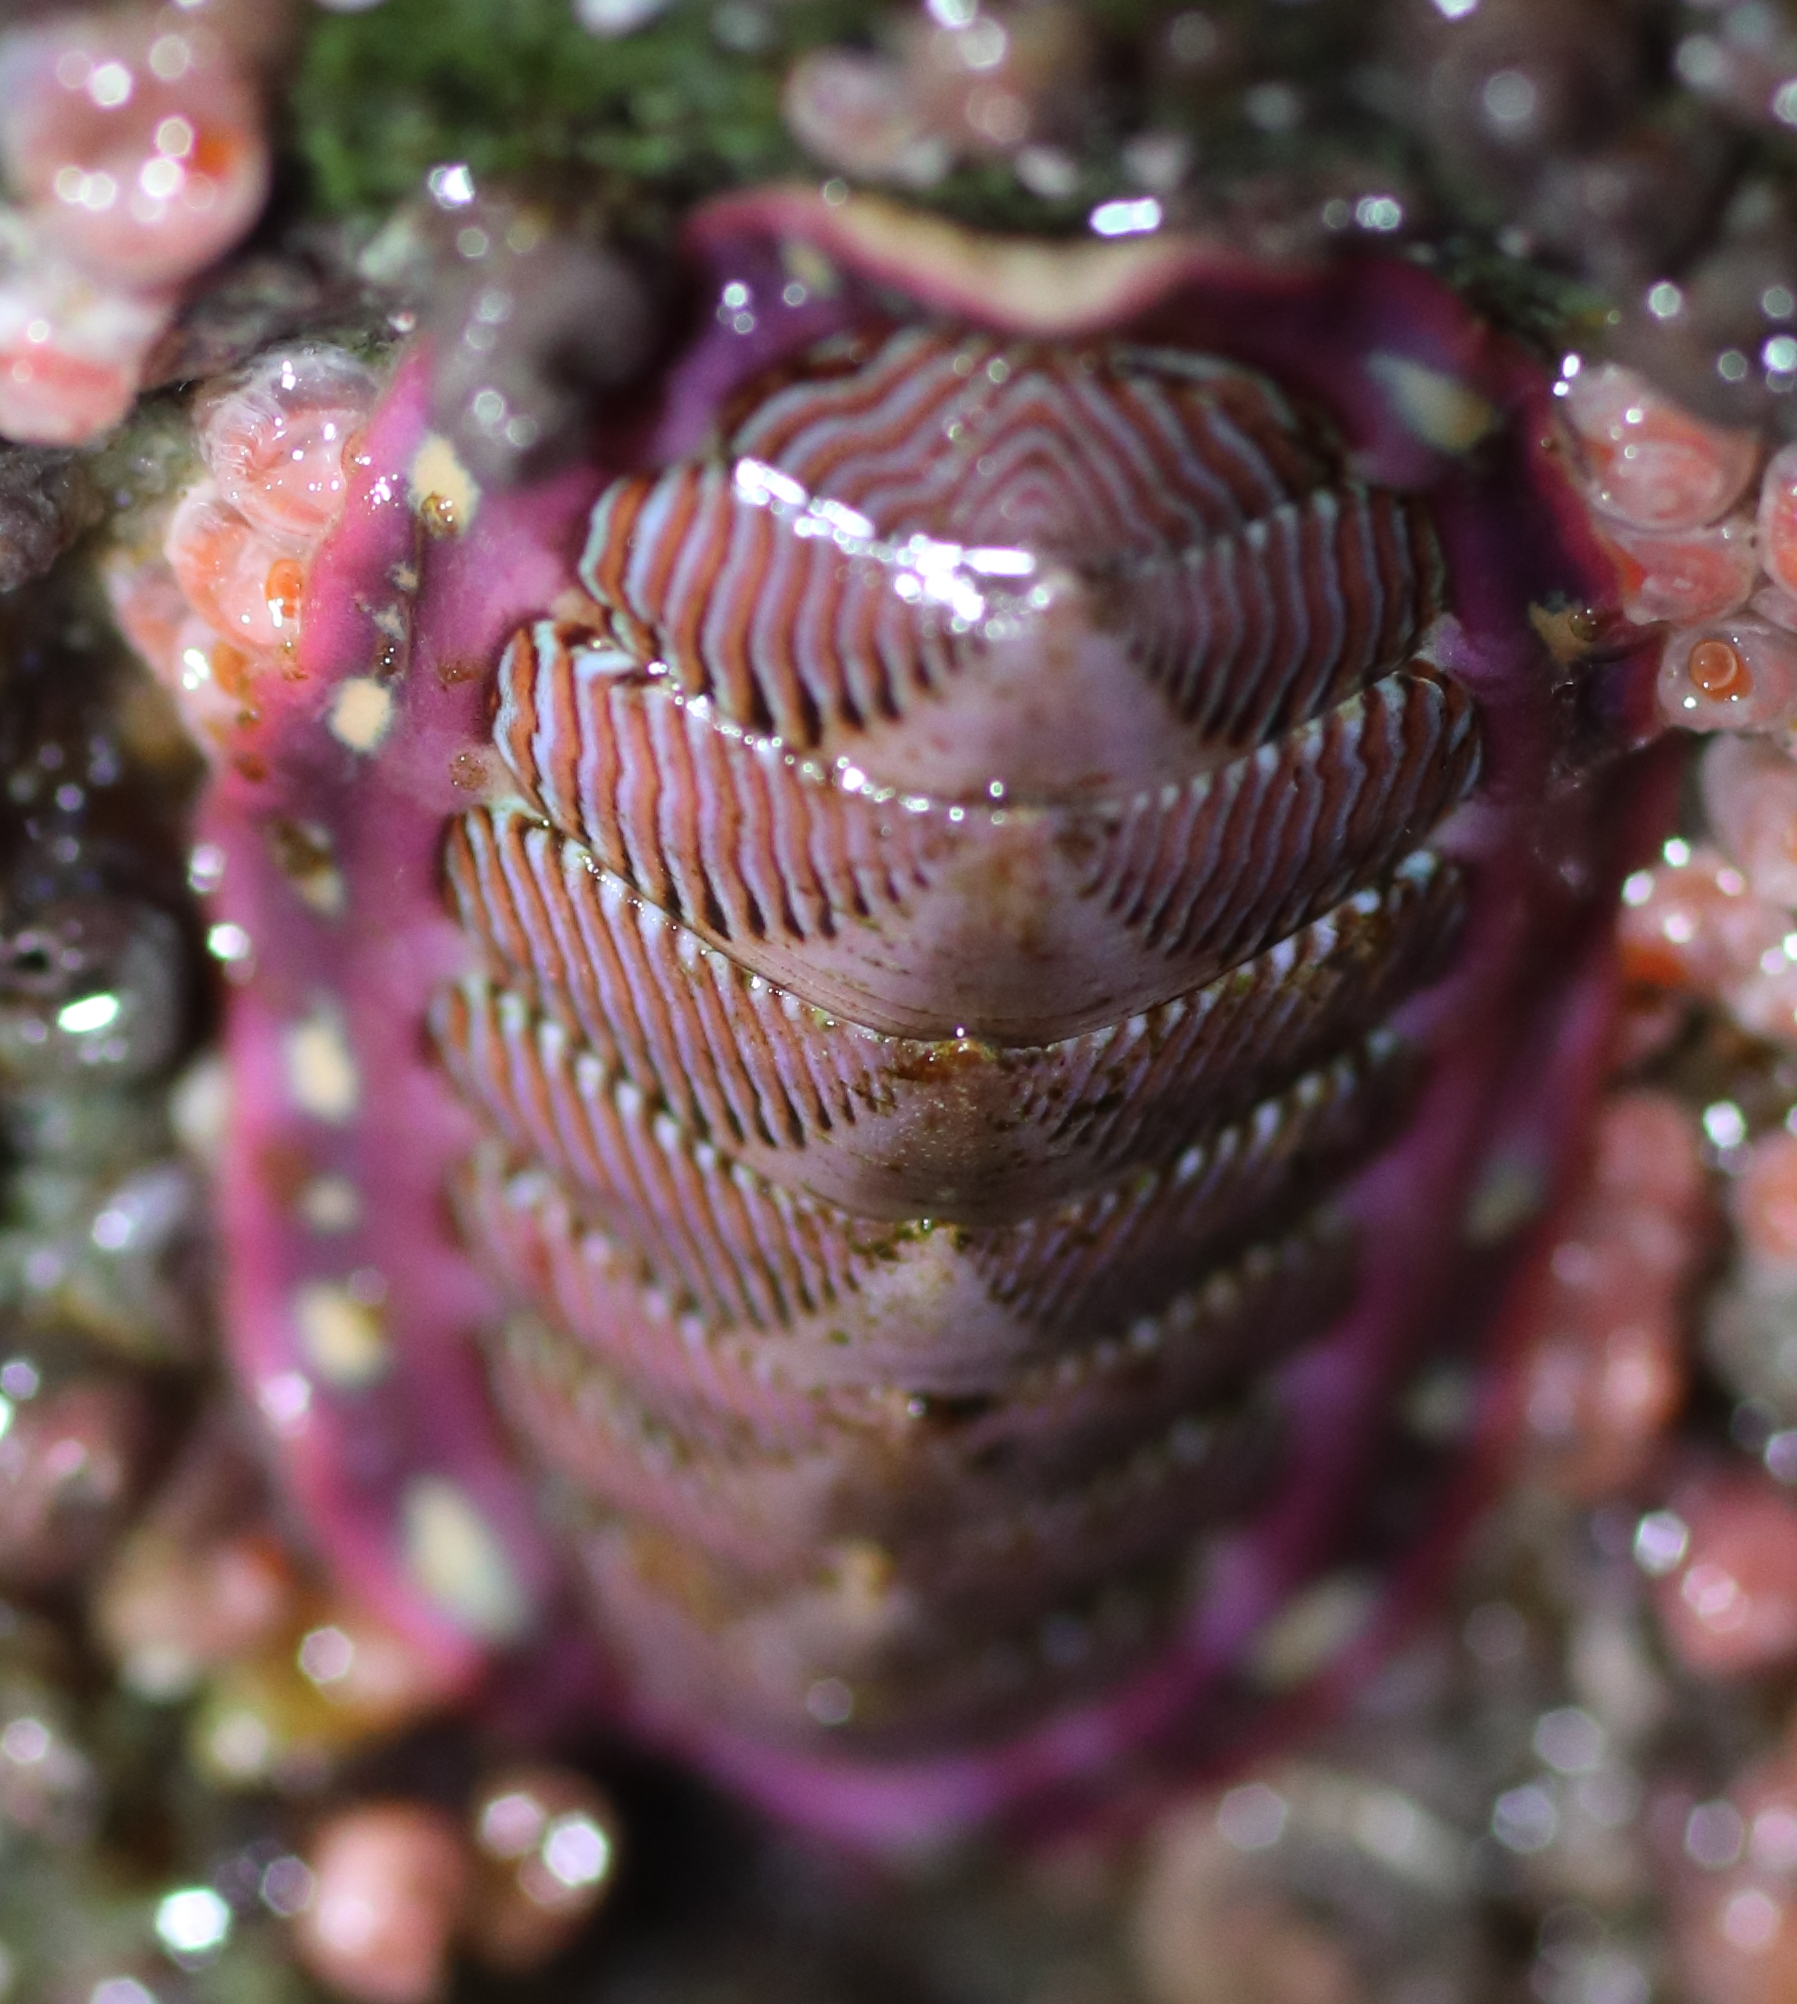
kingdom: Animalia
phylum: Mollusca
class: Polyplacophora
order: Chitonida
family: Tonicellidae
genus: Tonicella
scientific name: Tonicella lineata
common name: Lined chiton
